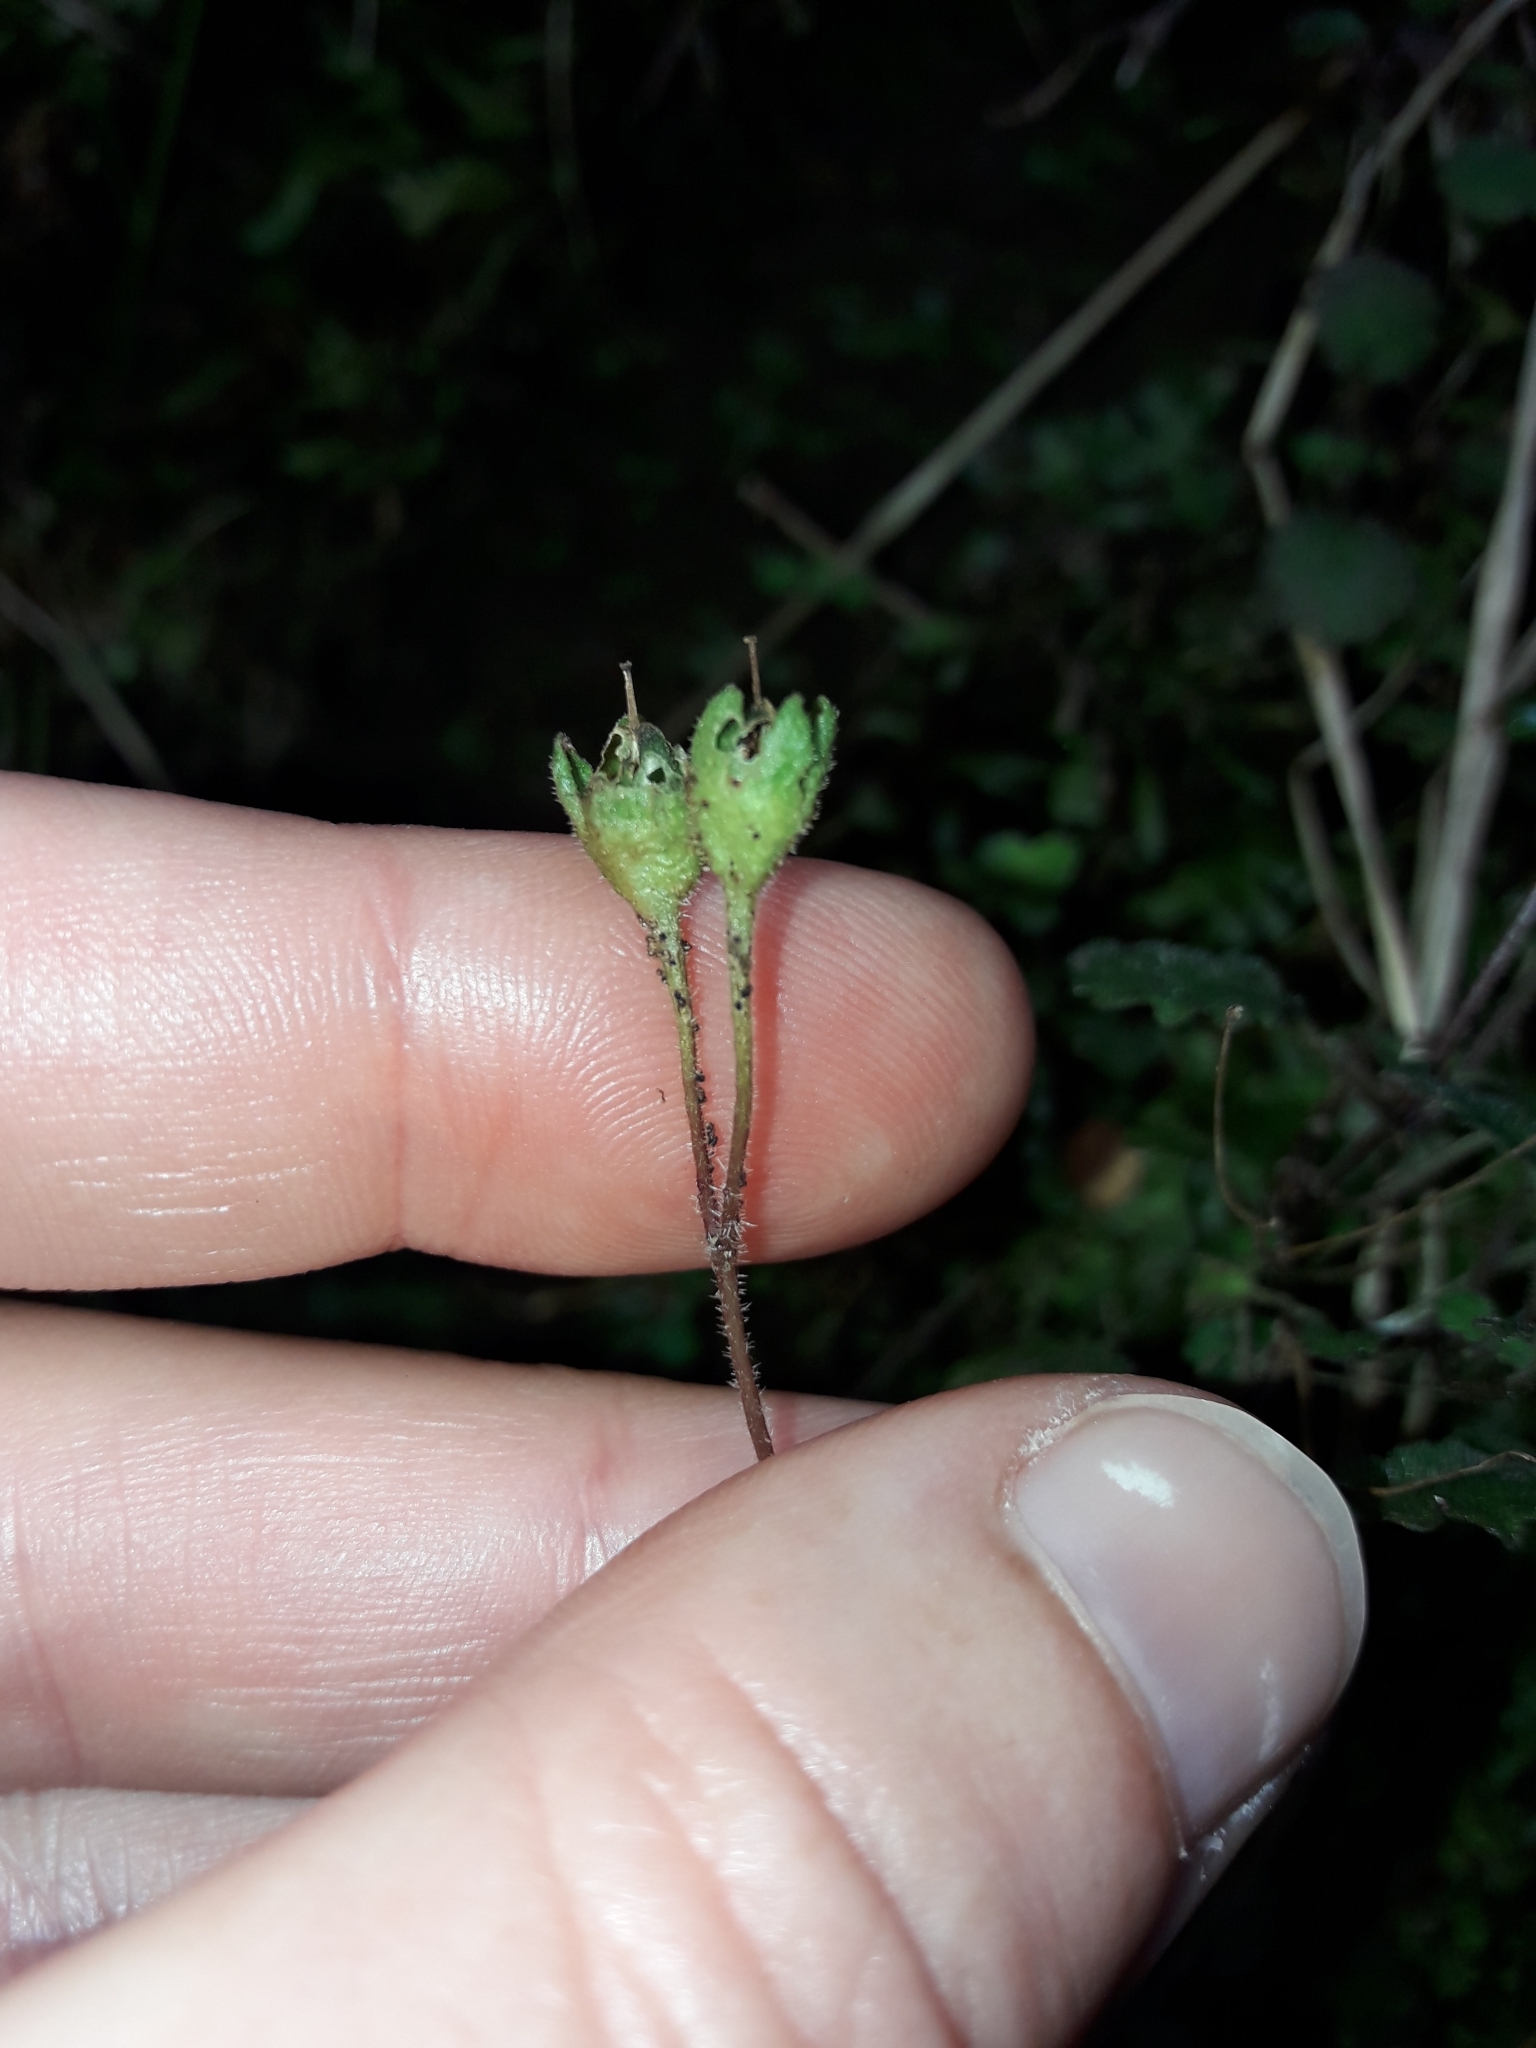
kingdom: Plantae
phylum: Tracheophyta
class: Magnoliopsida
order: Lamiales
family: Calceolariaceae
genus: Jovellana
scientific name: Jovellana repens
